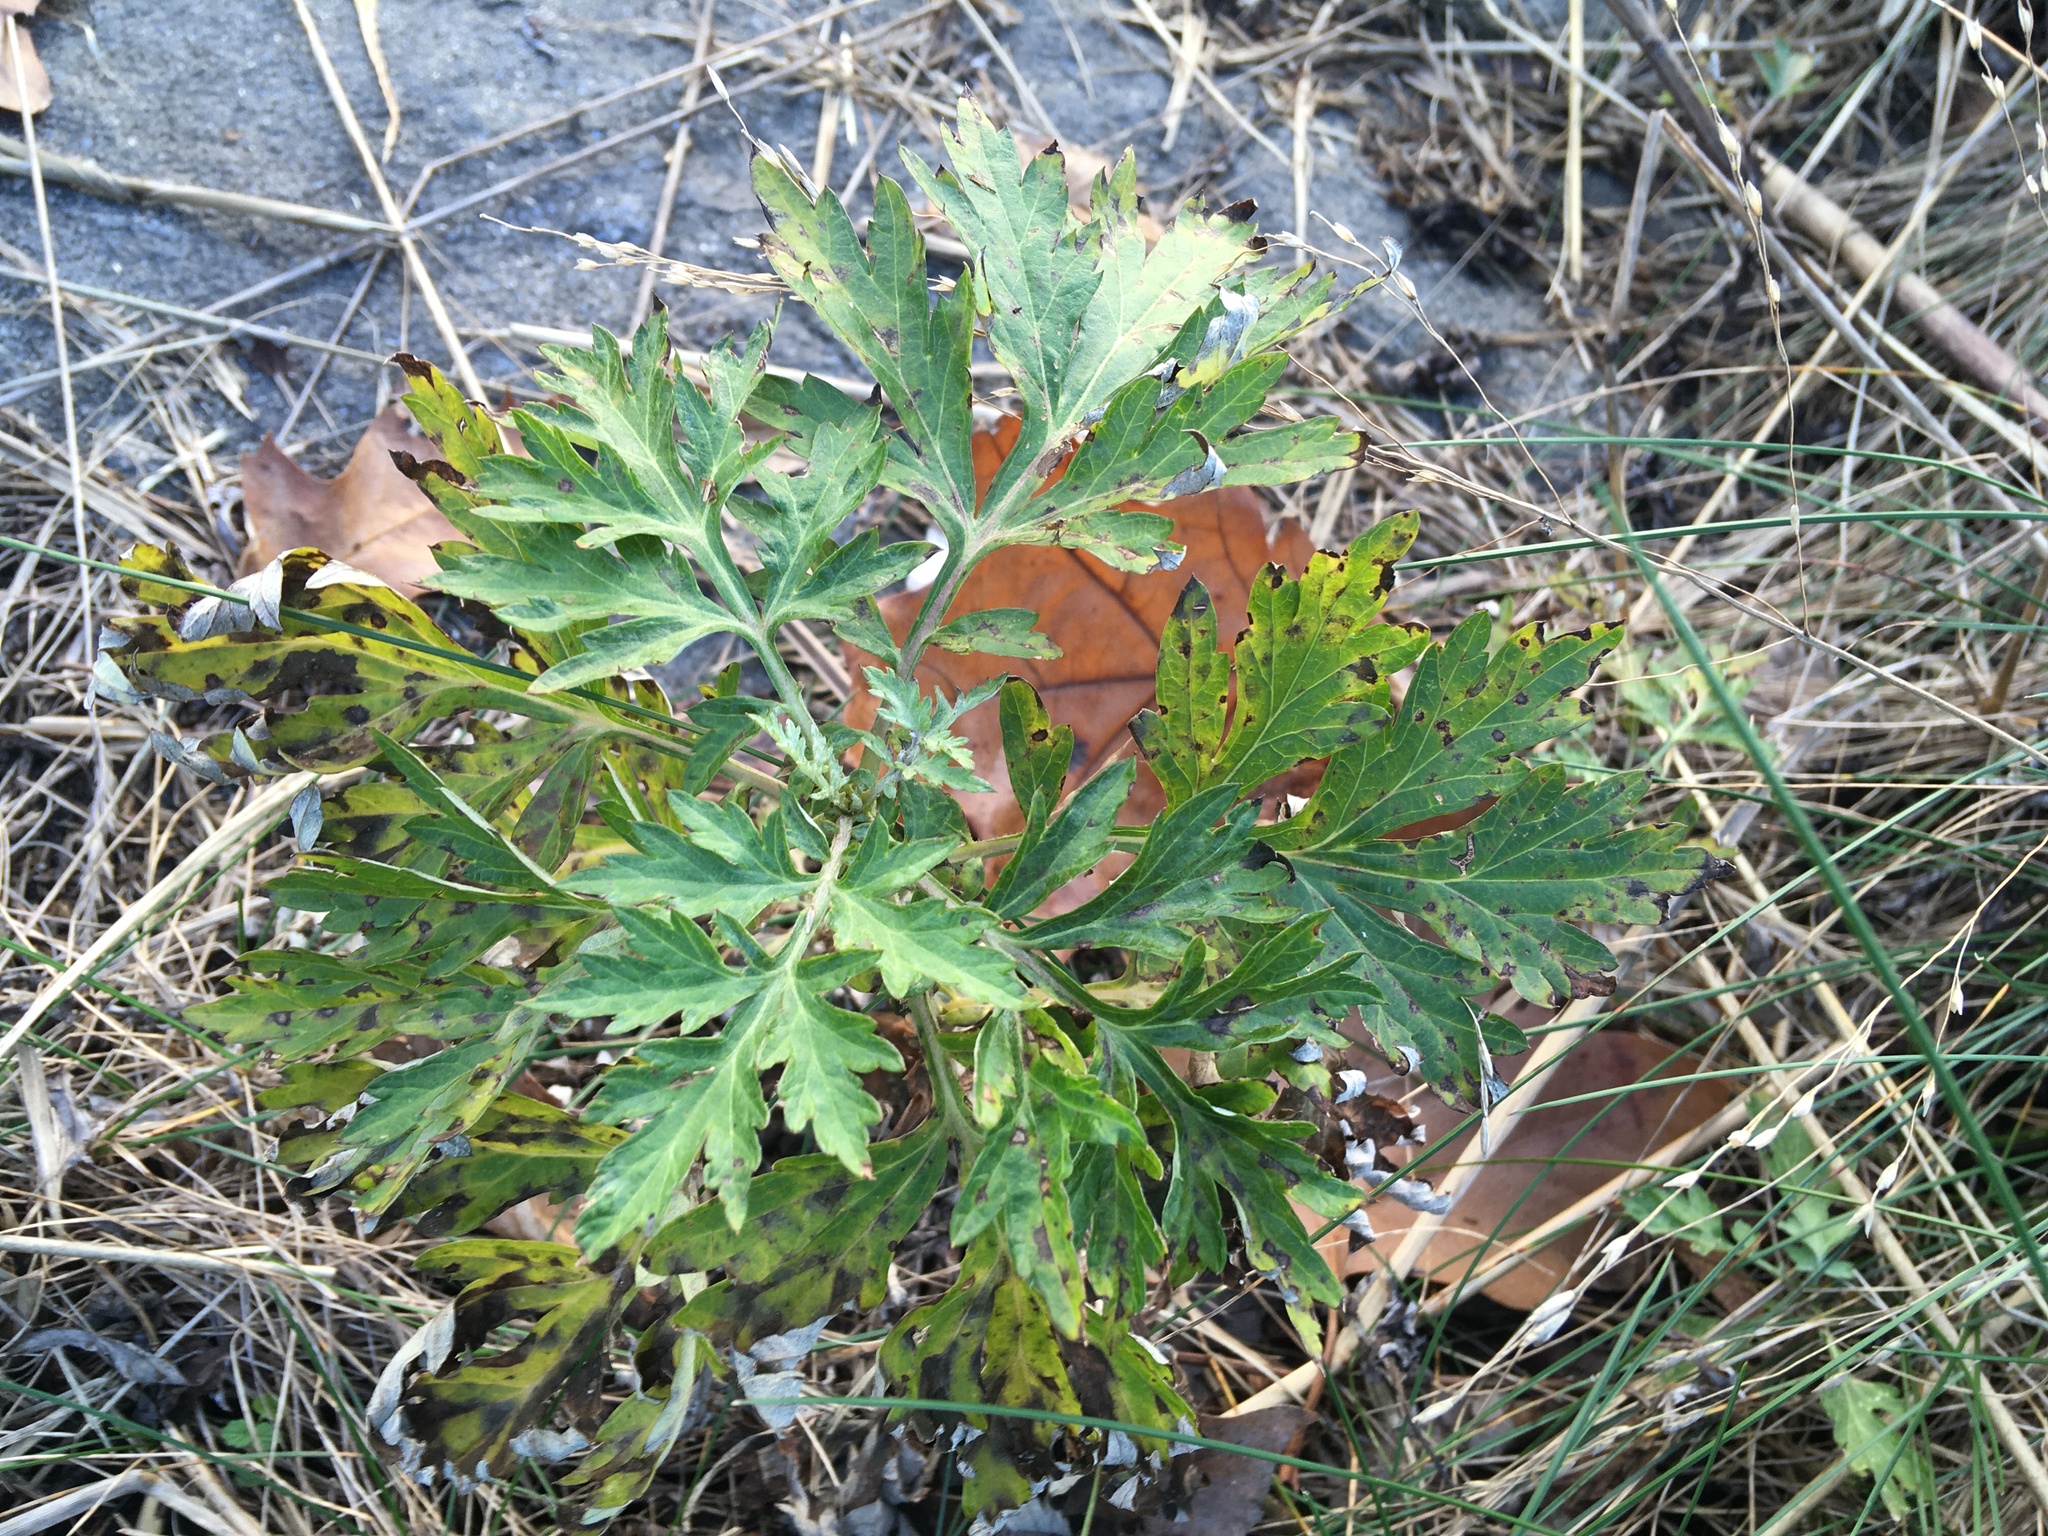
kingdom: Plantae
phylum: Tracheophyta
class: Magnoliopsida
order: Asterales
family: Asteraceae
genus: Artemisia
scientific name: Artemisia vulgaris
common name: Mugwort
